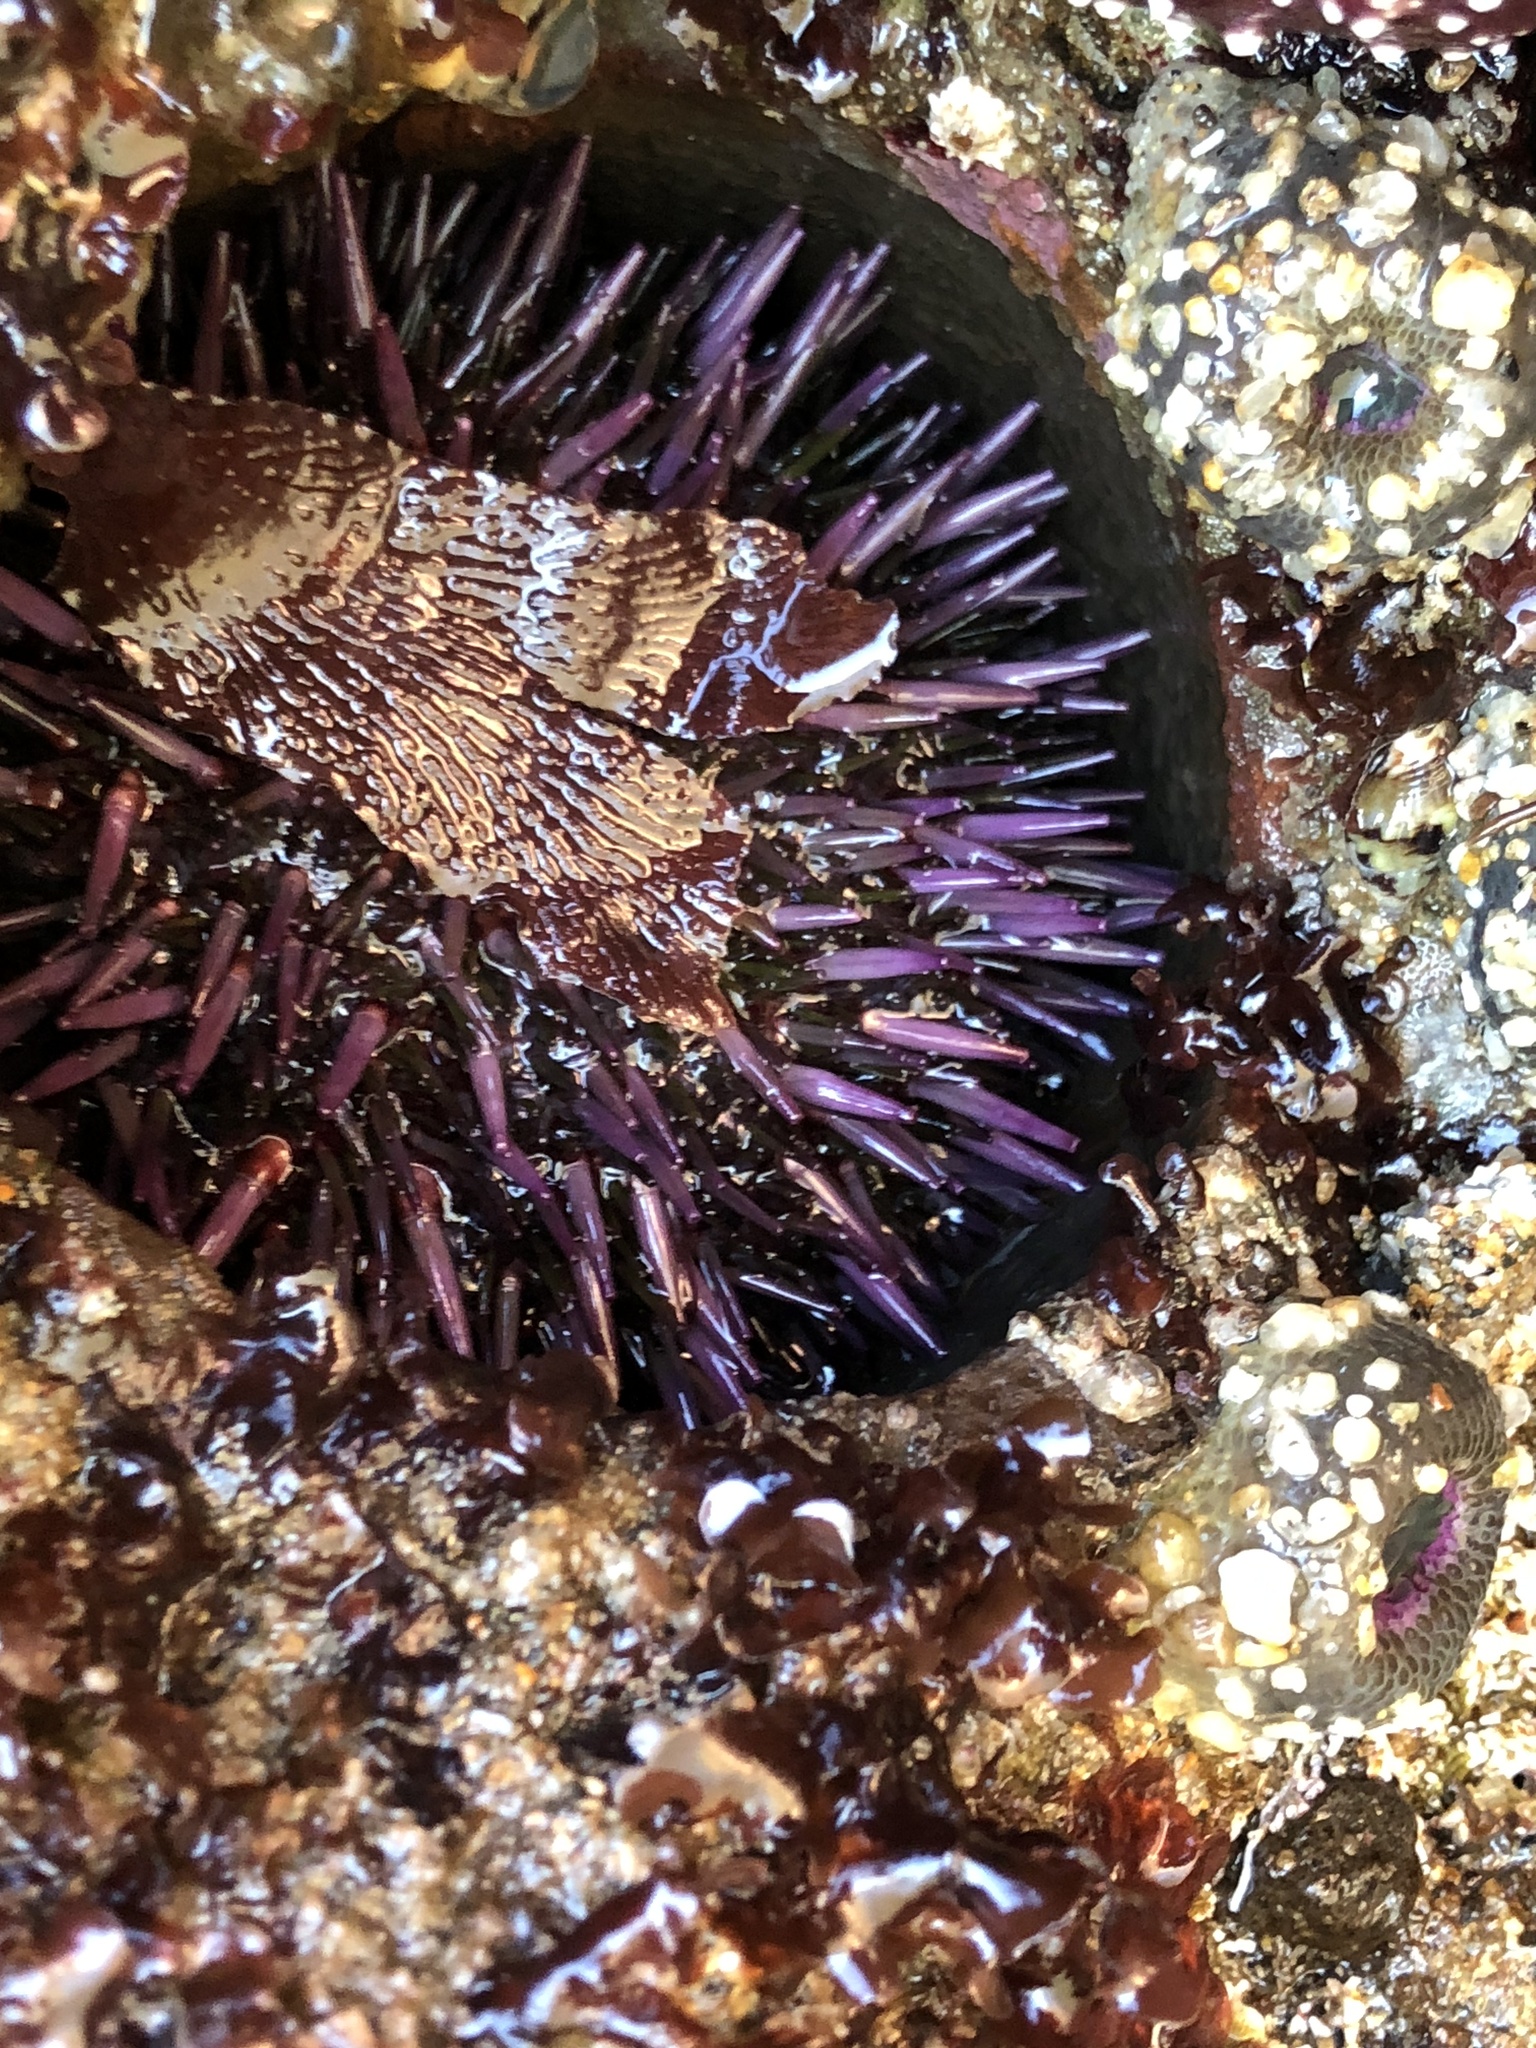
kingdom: Animalia
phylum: Echinodermata
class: Echinoidea
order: Camarodonta
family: Strongylocentrotidae
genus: Strongylocentrotus
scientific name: Strongylocentrotus purpuratus
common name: Purple sea urchin
